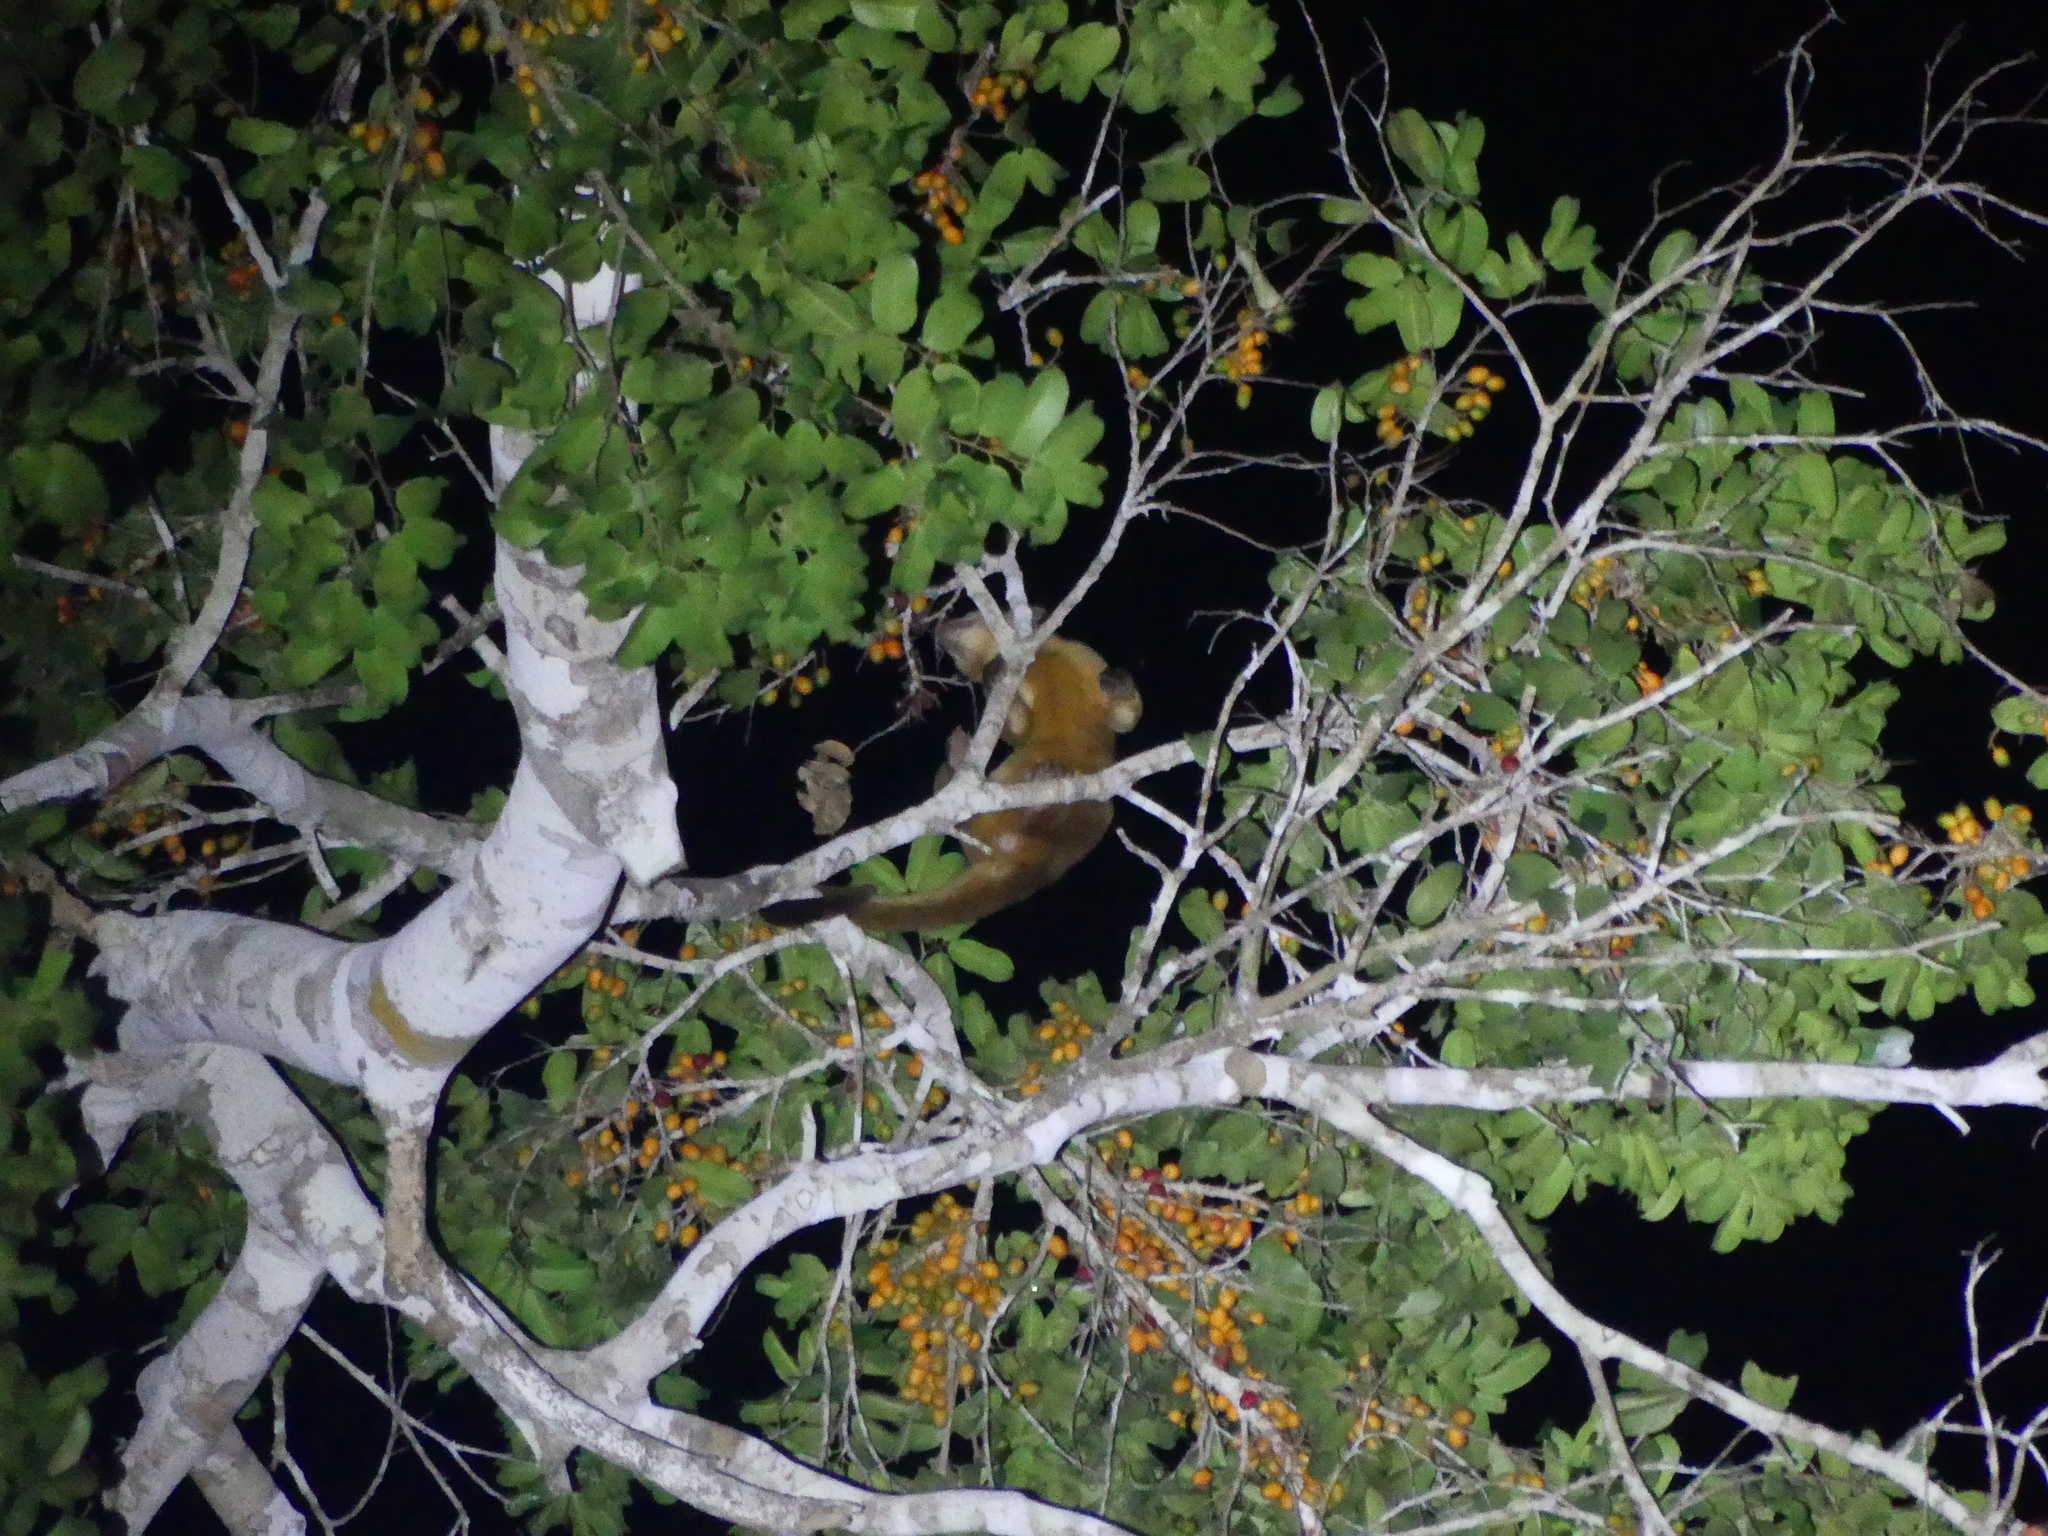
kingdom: Animalia
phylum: Chordata
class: Mammalia
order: Carnivora
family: Procyonidae
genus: Potos
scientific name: Potos flavus
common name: Kinkajou
